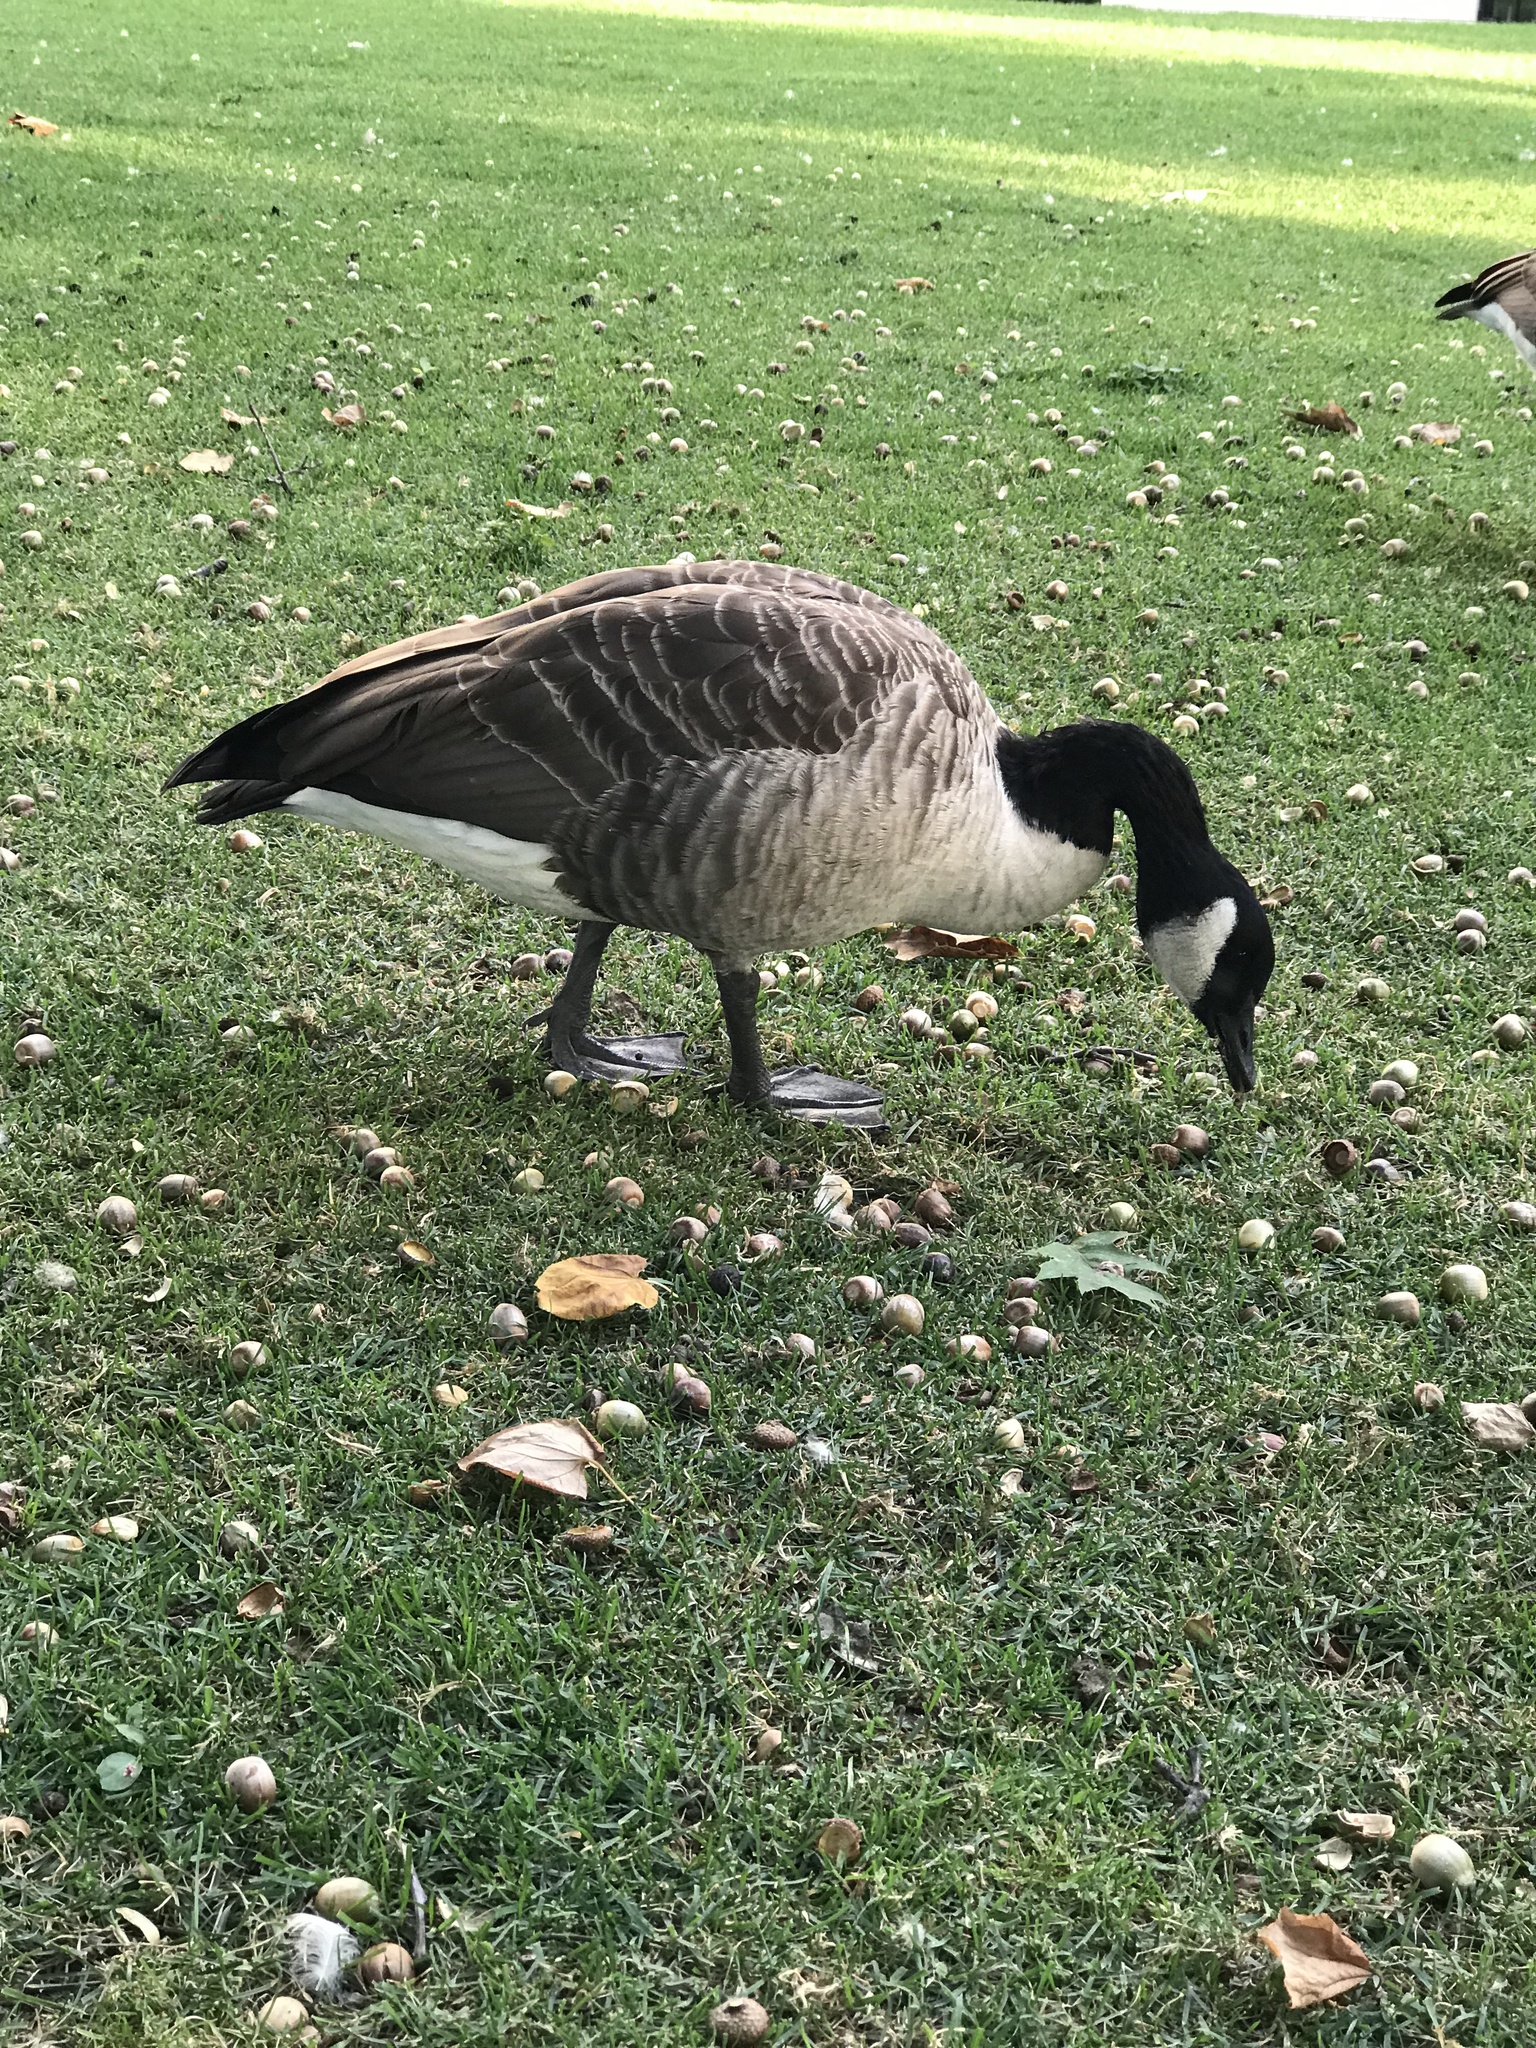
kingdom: Animalia
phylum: Chordata
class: Aves
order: Anseriformes
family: Anatidae
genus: Branta
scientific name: Branta canadensis
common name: Canada goose
